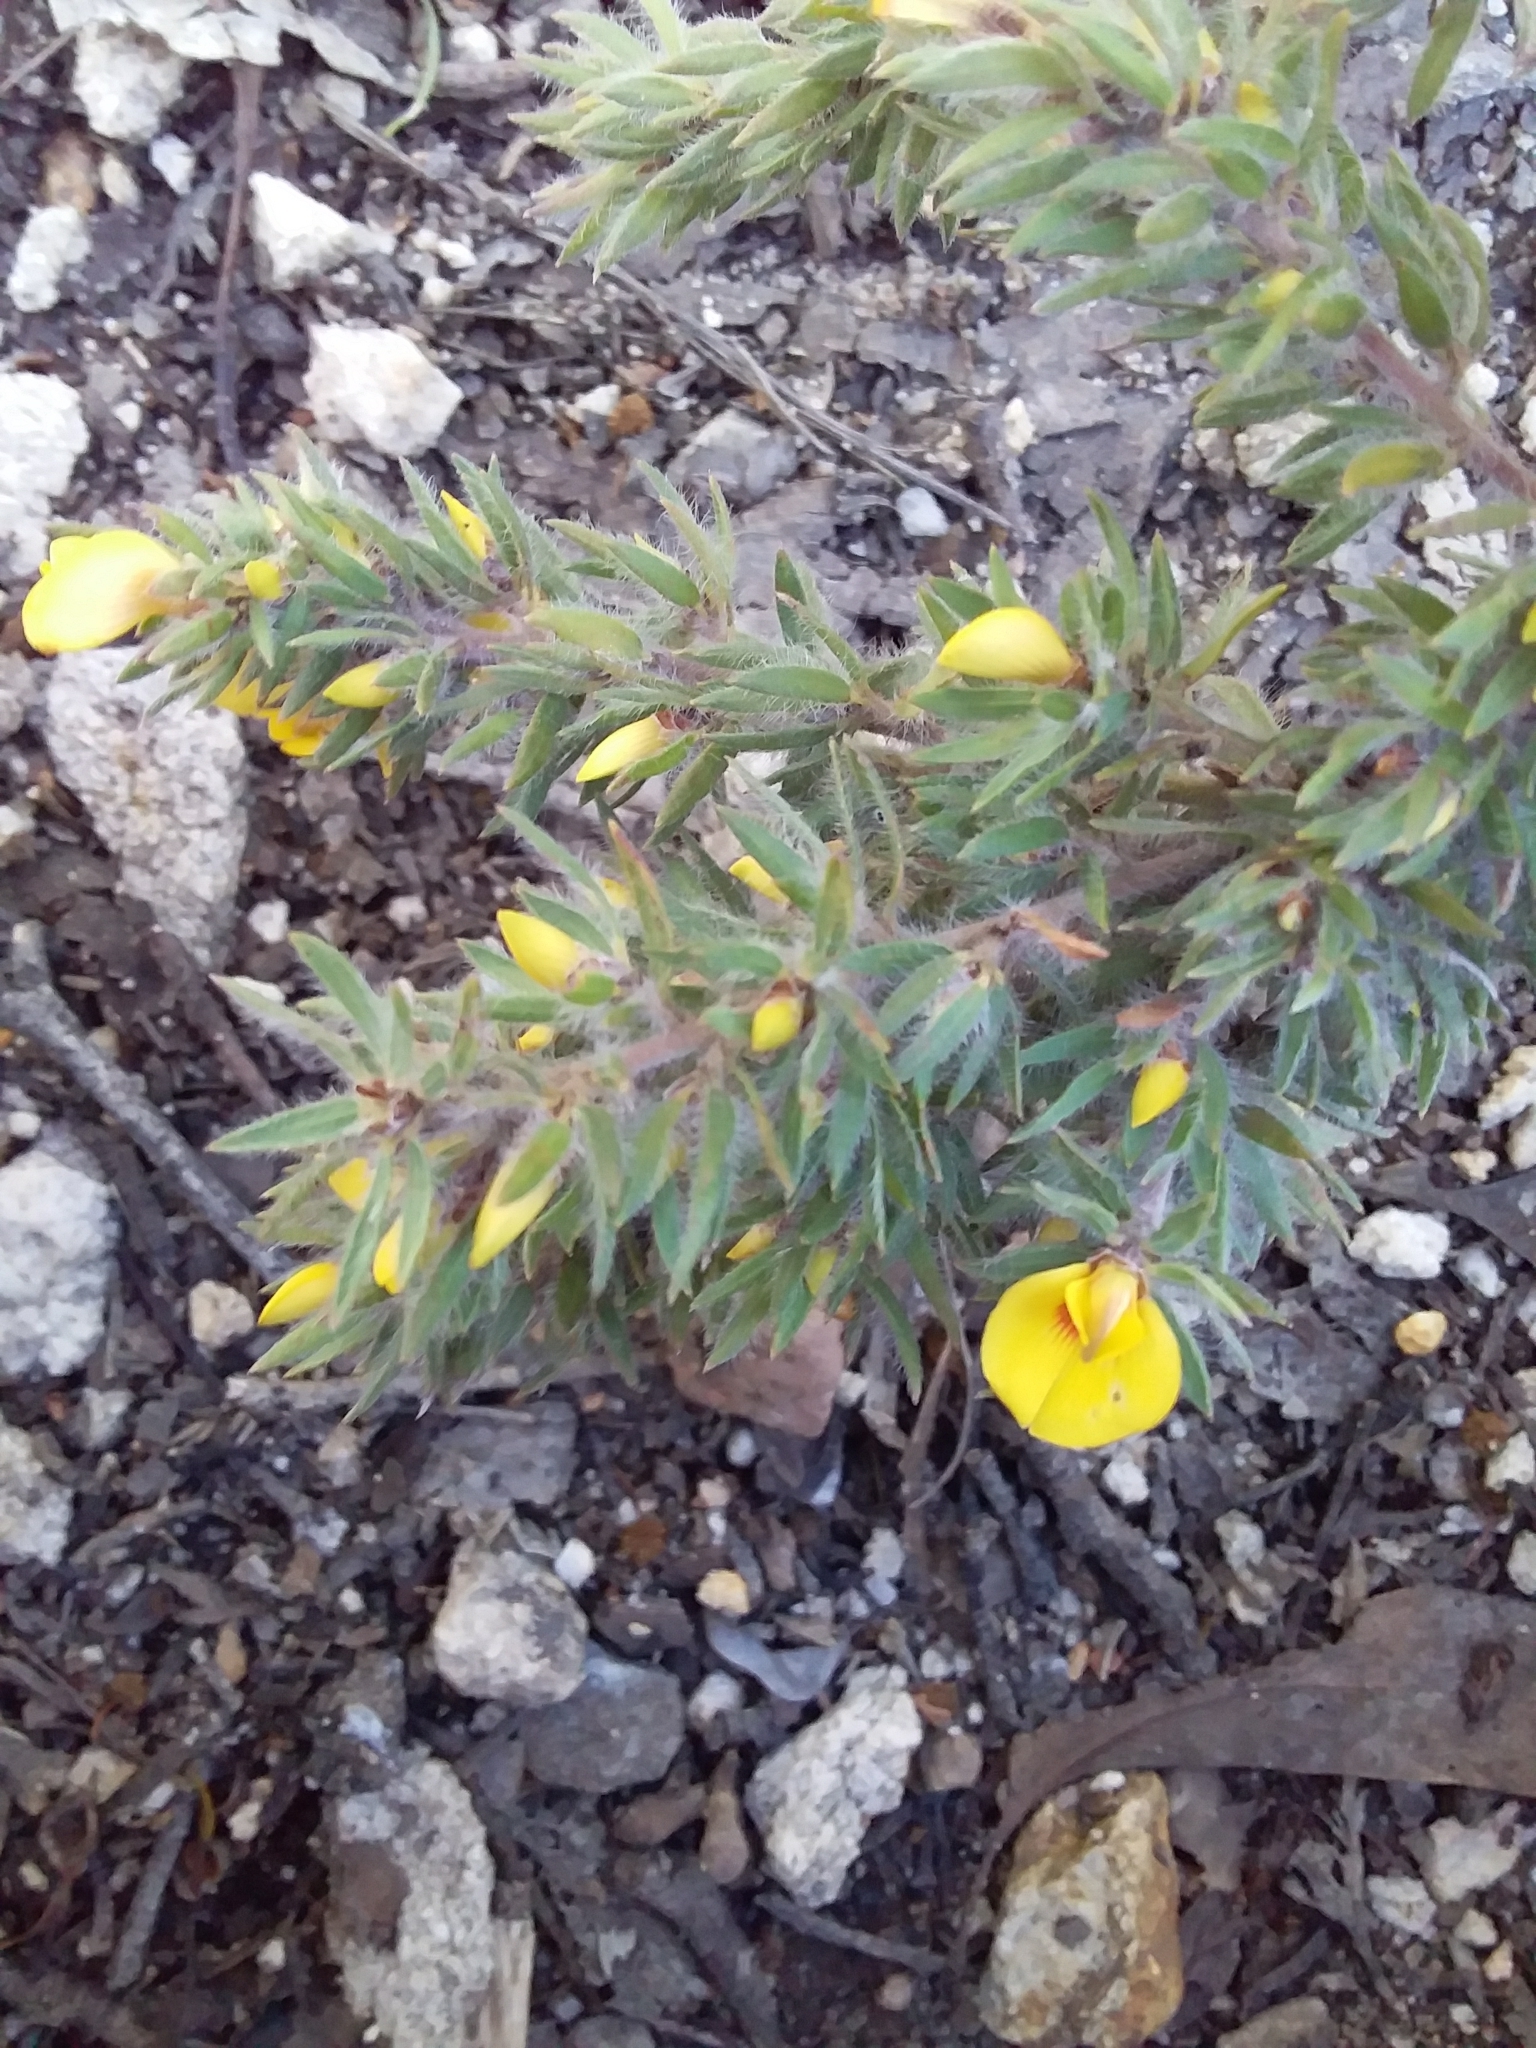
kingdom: Plantae
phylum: Tracheophyta
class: Magnoliopsida
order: Fabales
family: Fabaceae
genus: Pultenaea
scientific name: Pultenaea involucrata
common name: Mount lofty bush-pea
